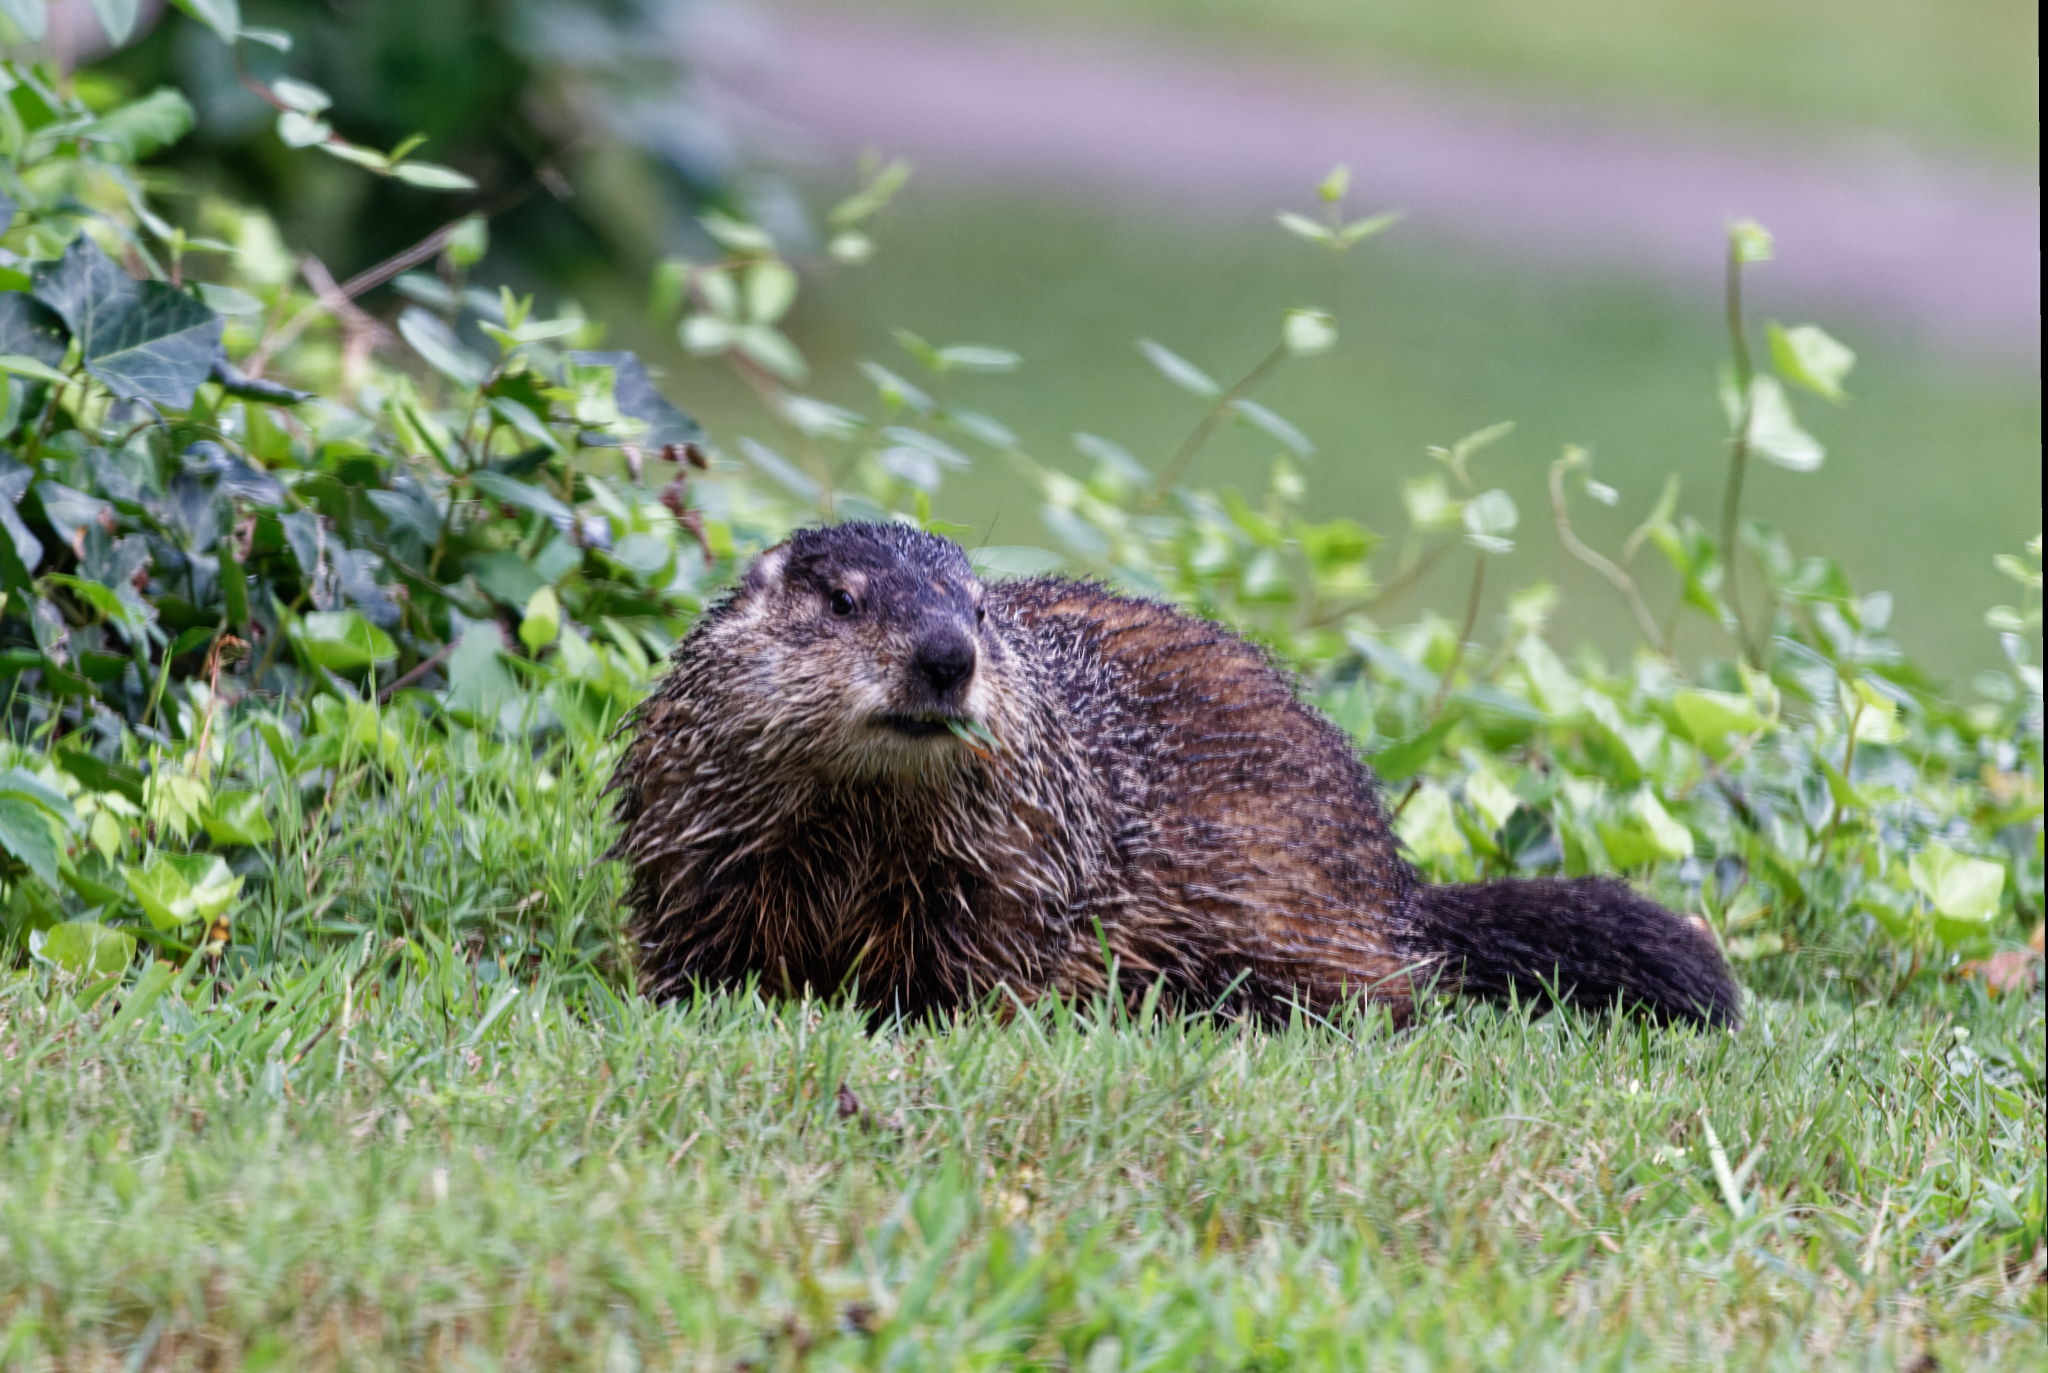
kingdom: Animalia
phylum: Chordata
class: Mammalia
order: Rodentia
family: Sciuridae
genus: Marmota
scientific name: Marmota monax
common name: Groundhog
